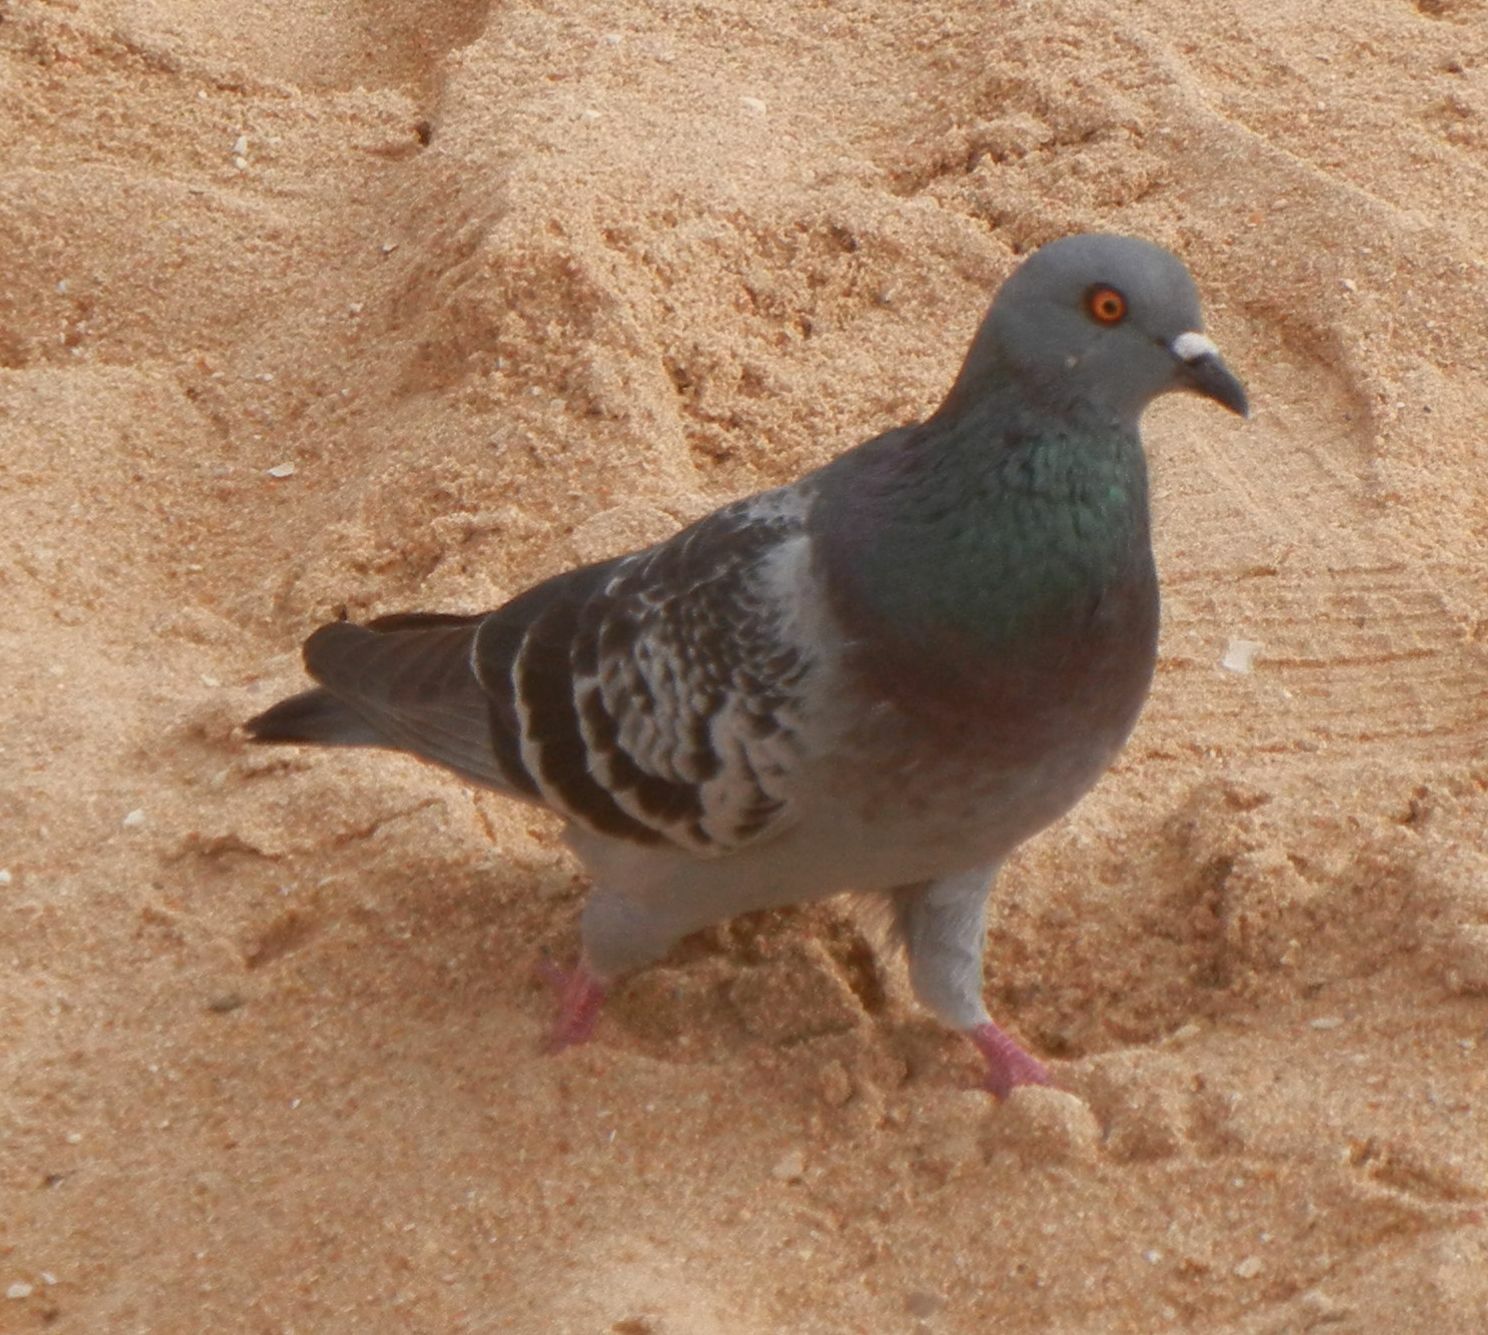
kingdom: Animalia
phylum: Chordata
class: Aves
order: Columbiformes
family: Columbidae
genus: Columba
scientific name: Columba livia
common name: Rock pigeon
